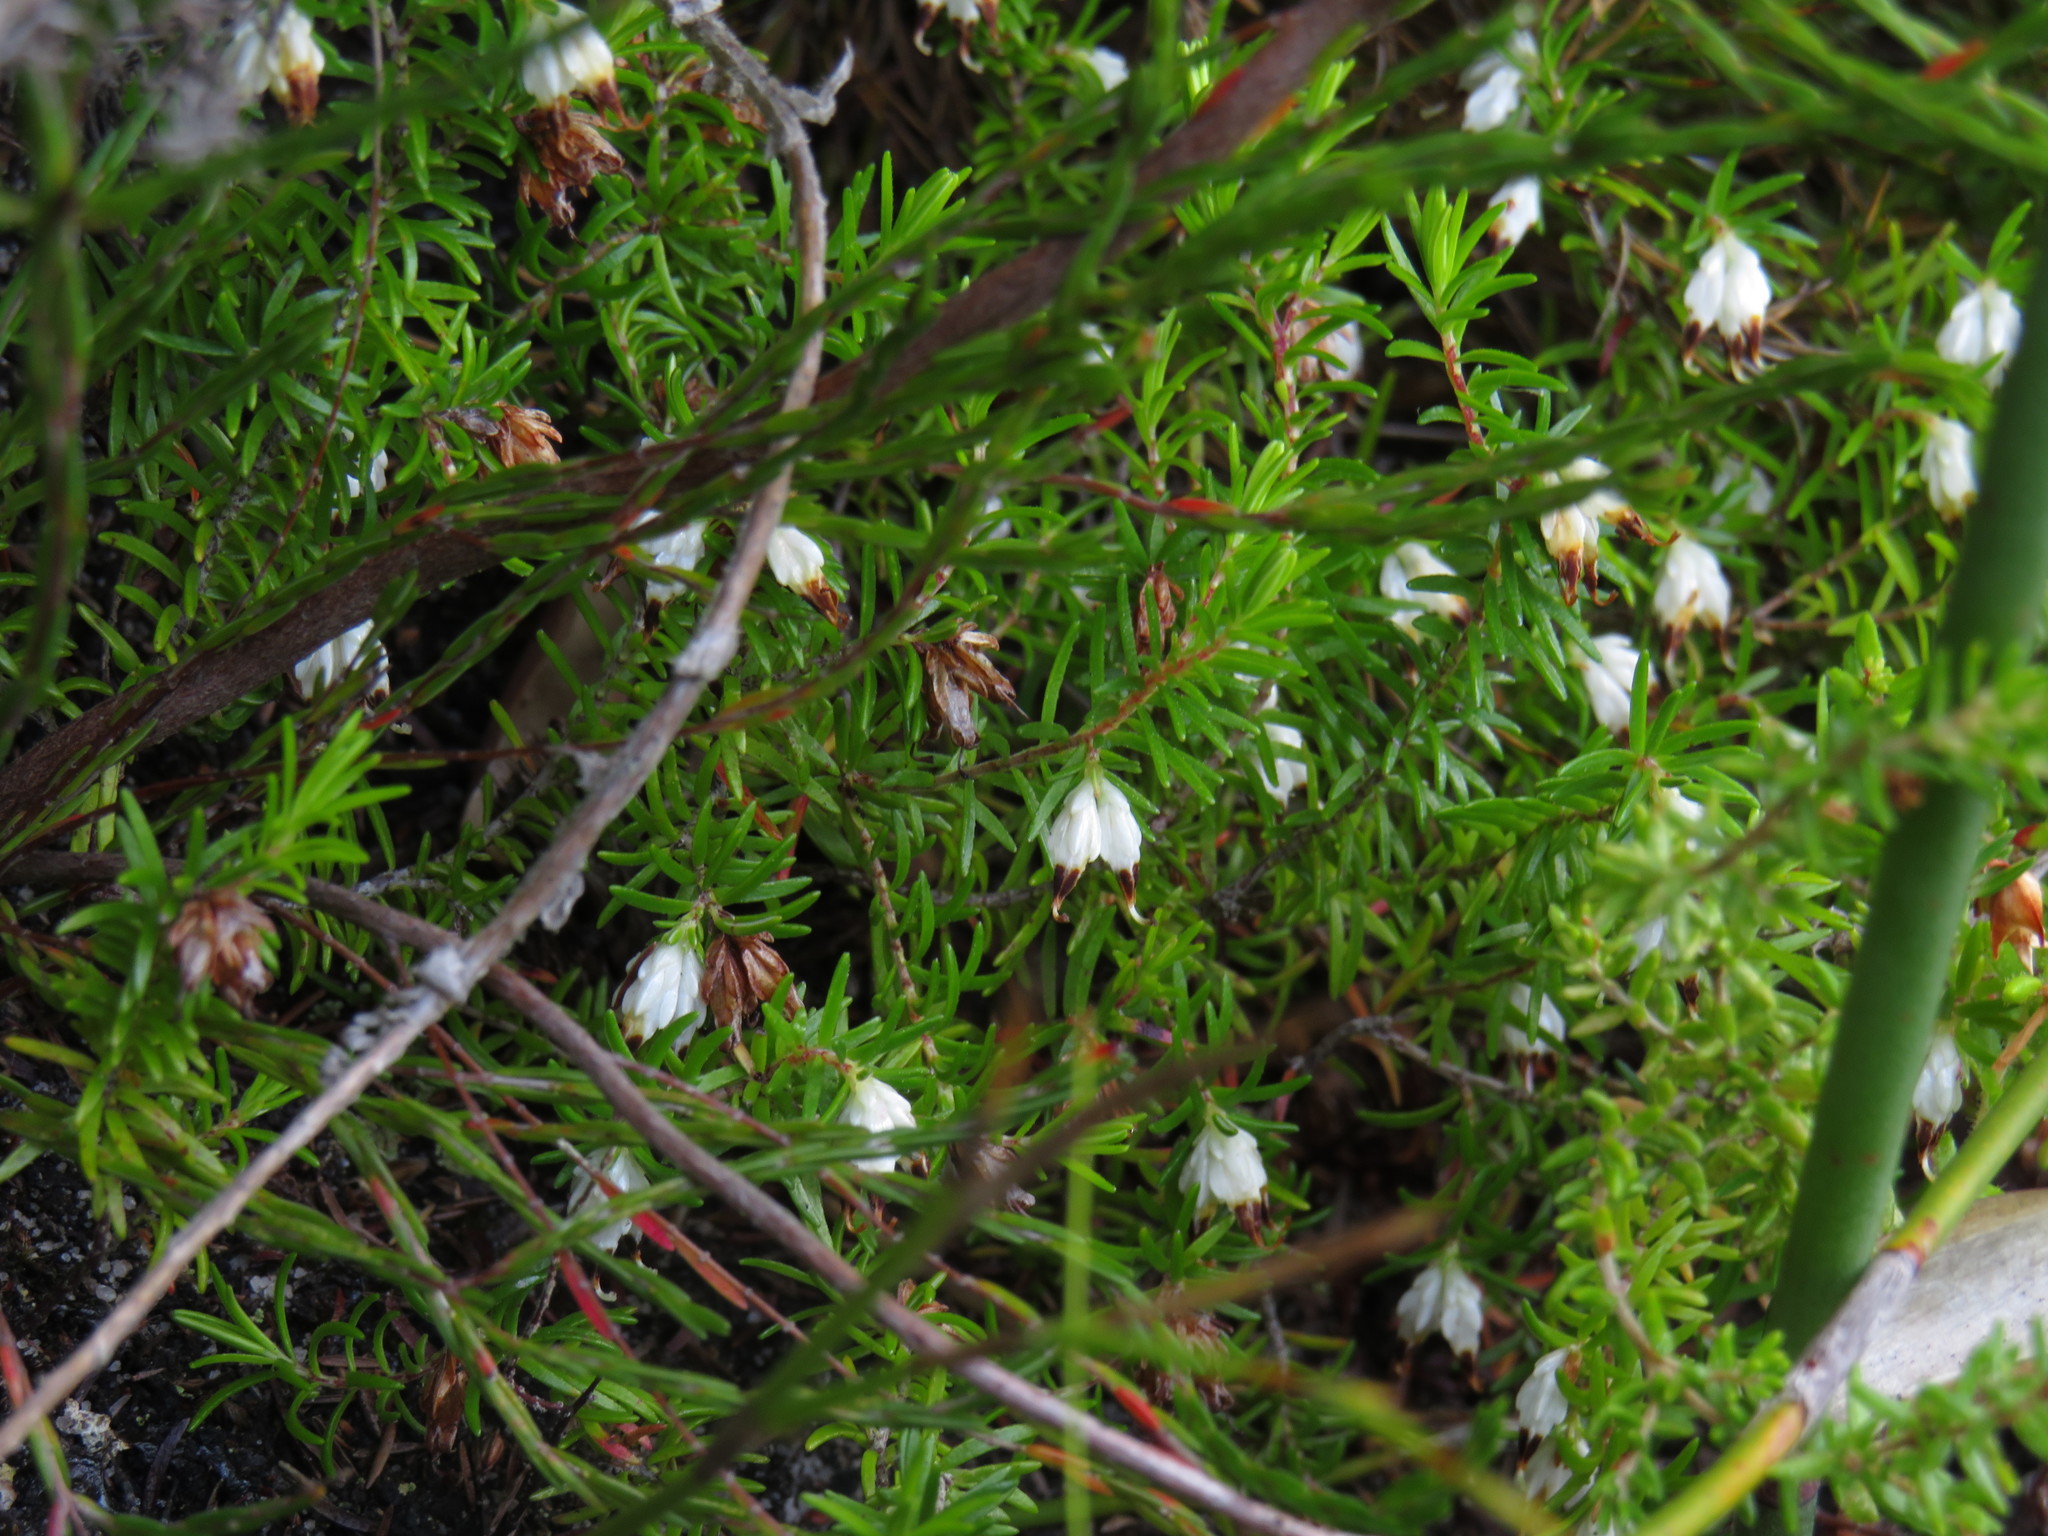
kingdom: Plantae
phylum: Tracheophyta
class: Magnoliopsida
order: Ericales
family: Ericaceae
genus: Erica
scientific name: Erica genistifolia
